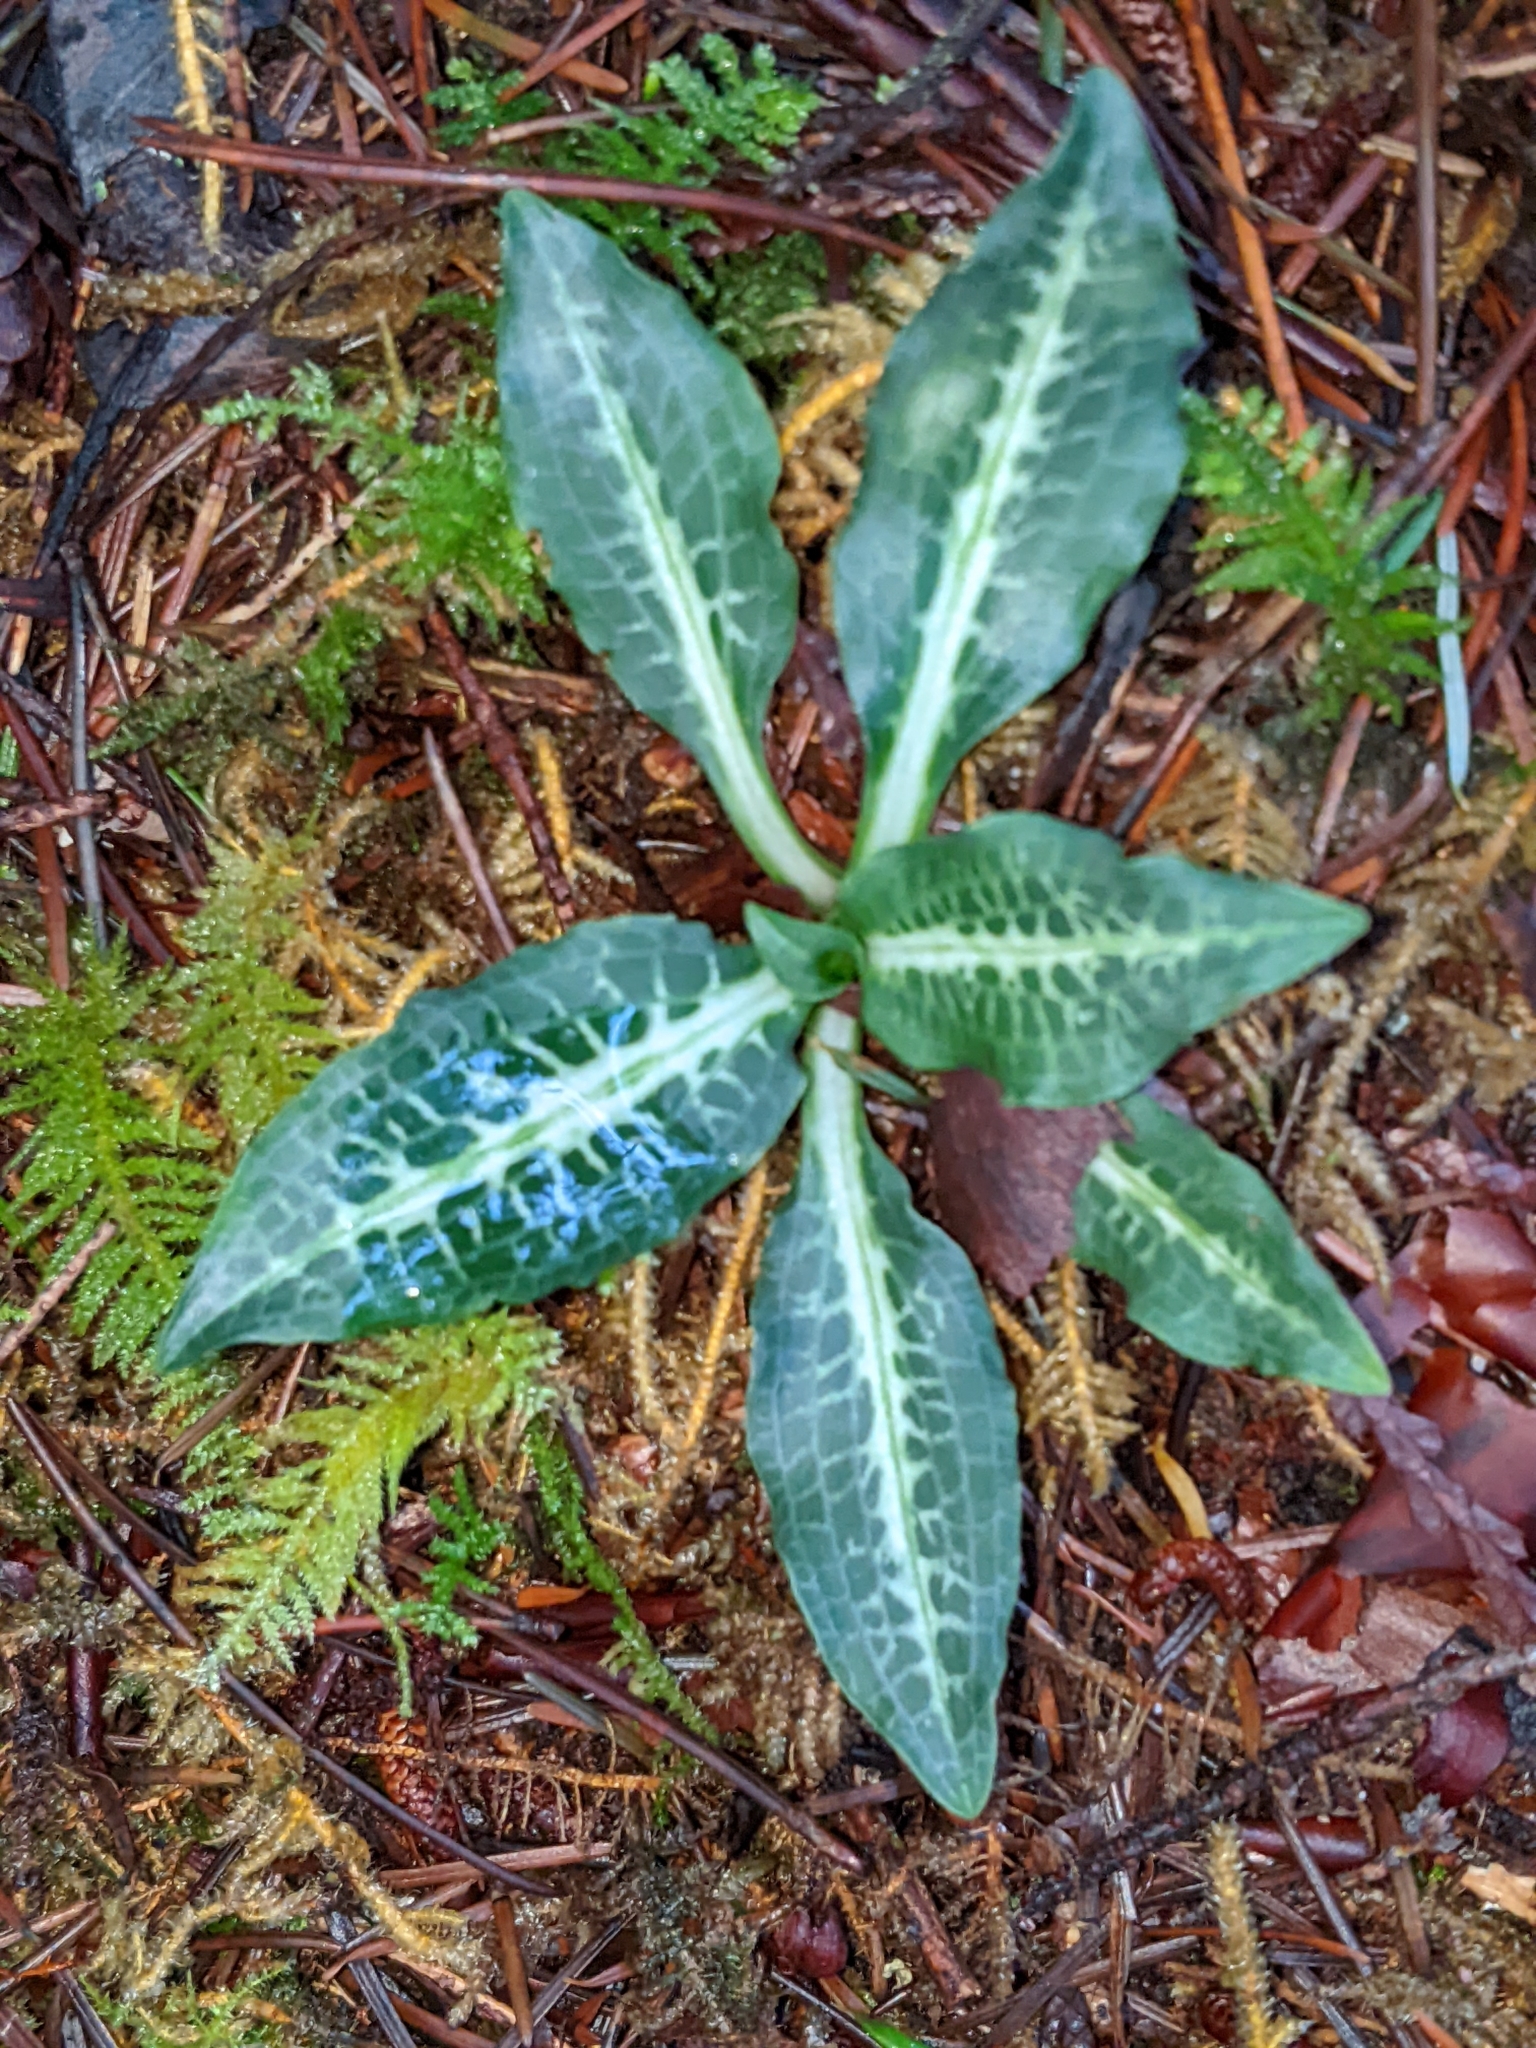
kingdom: Plantae
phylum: Tracheophyta
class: Liliopsida
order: Asparagales
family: Orchidaceae
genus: Goodyera
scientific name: Goodyera oblongifolia
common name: Giant rattlesnake-plantain
